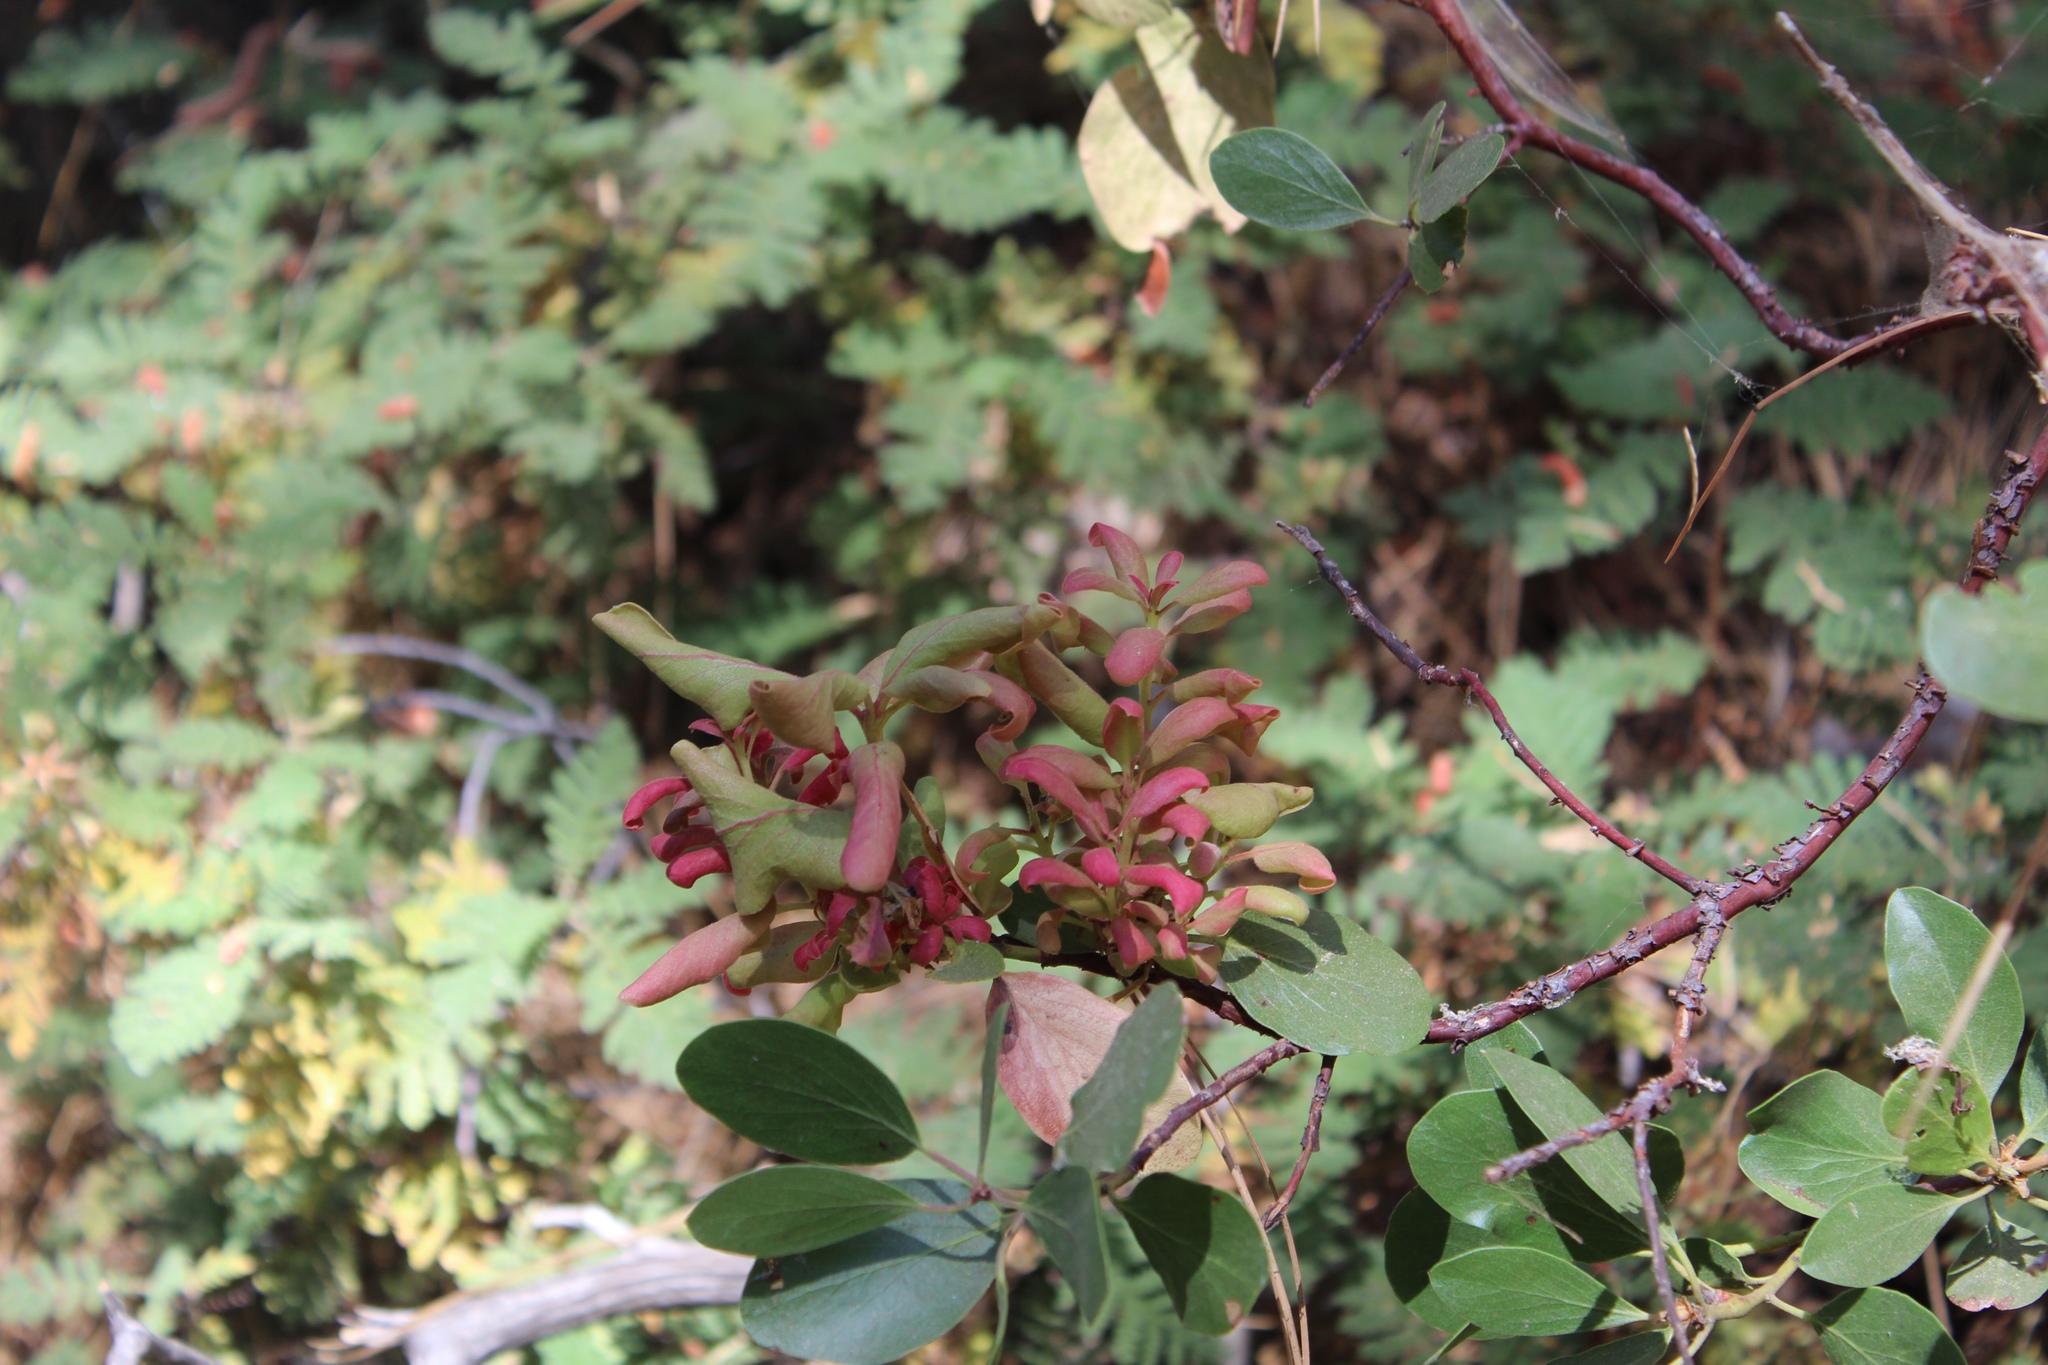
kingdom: Plantae
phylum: Tracheophyta
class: Magnoliopsida
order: Ericales
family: Ericaceae
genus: Arctostaphylos
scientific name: Arctostaphylos patula
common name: Green-leaf manzanita
